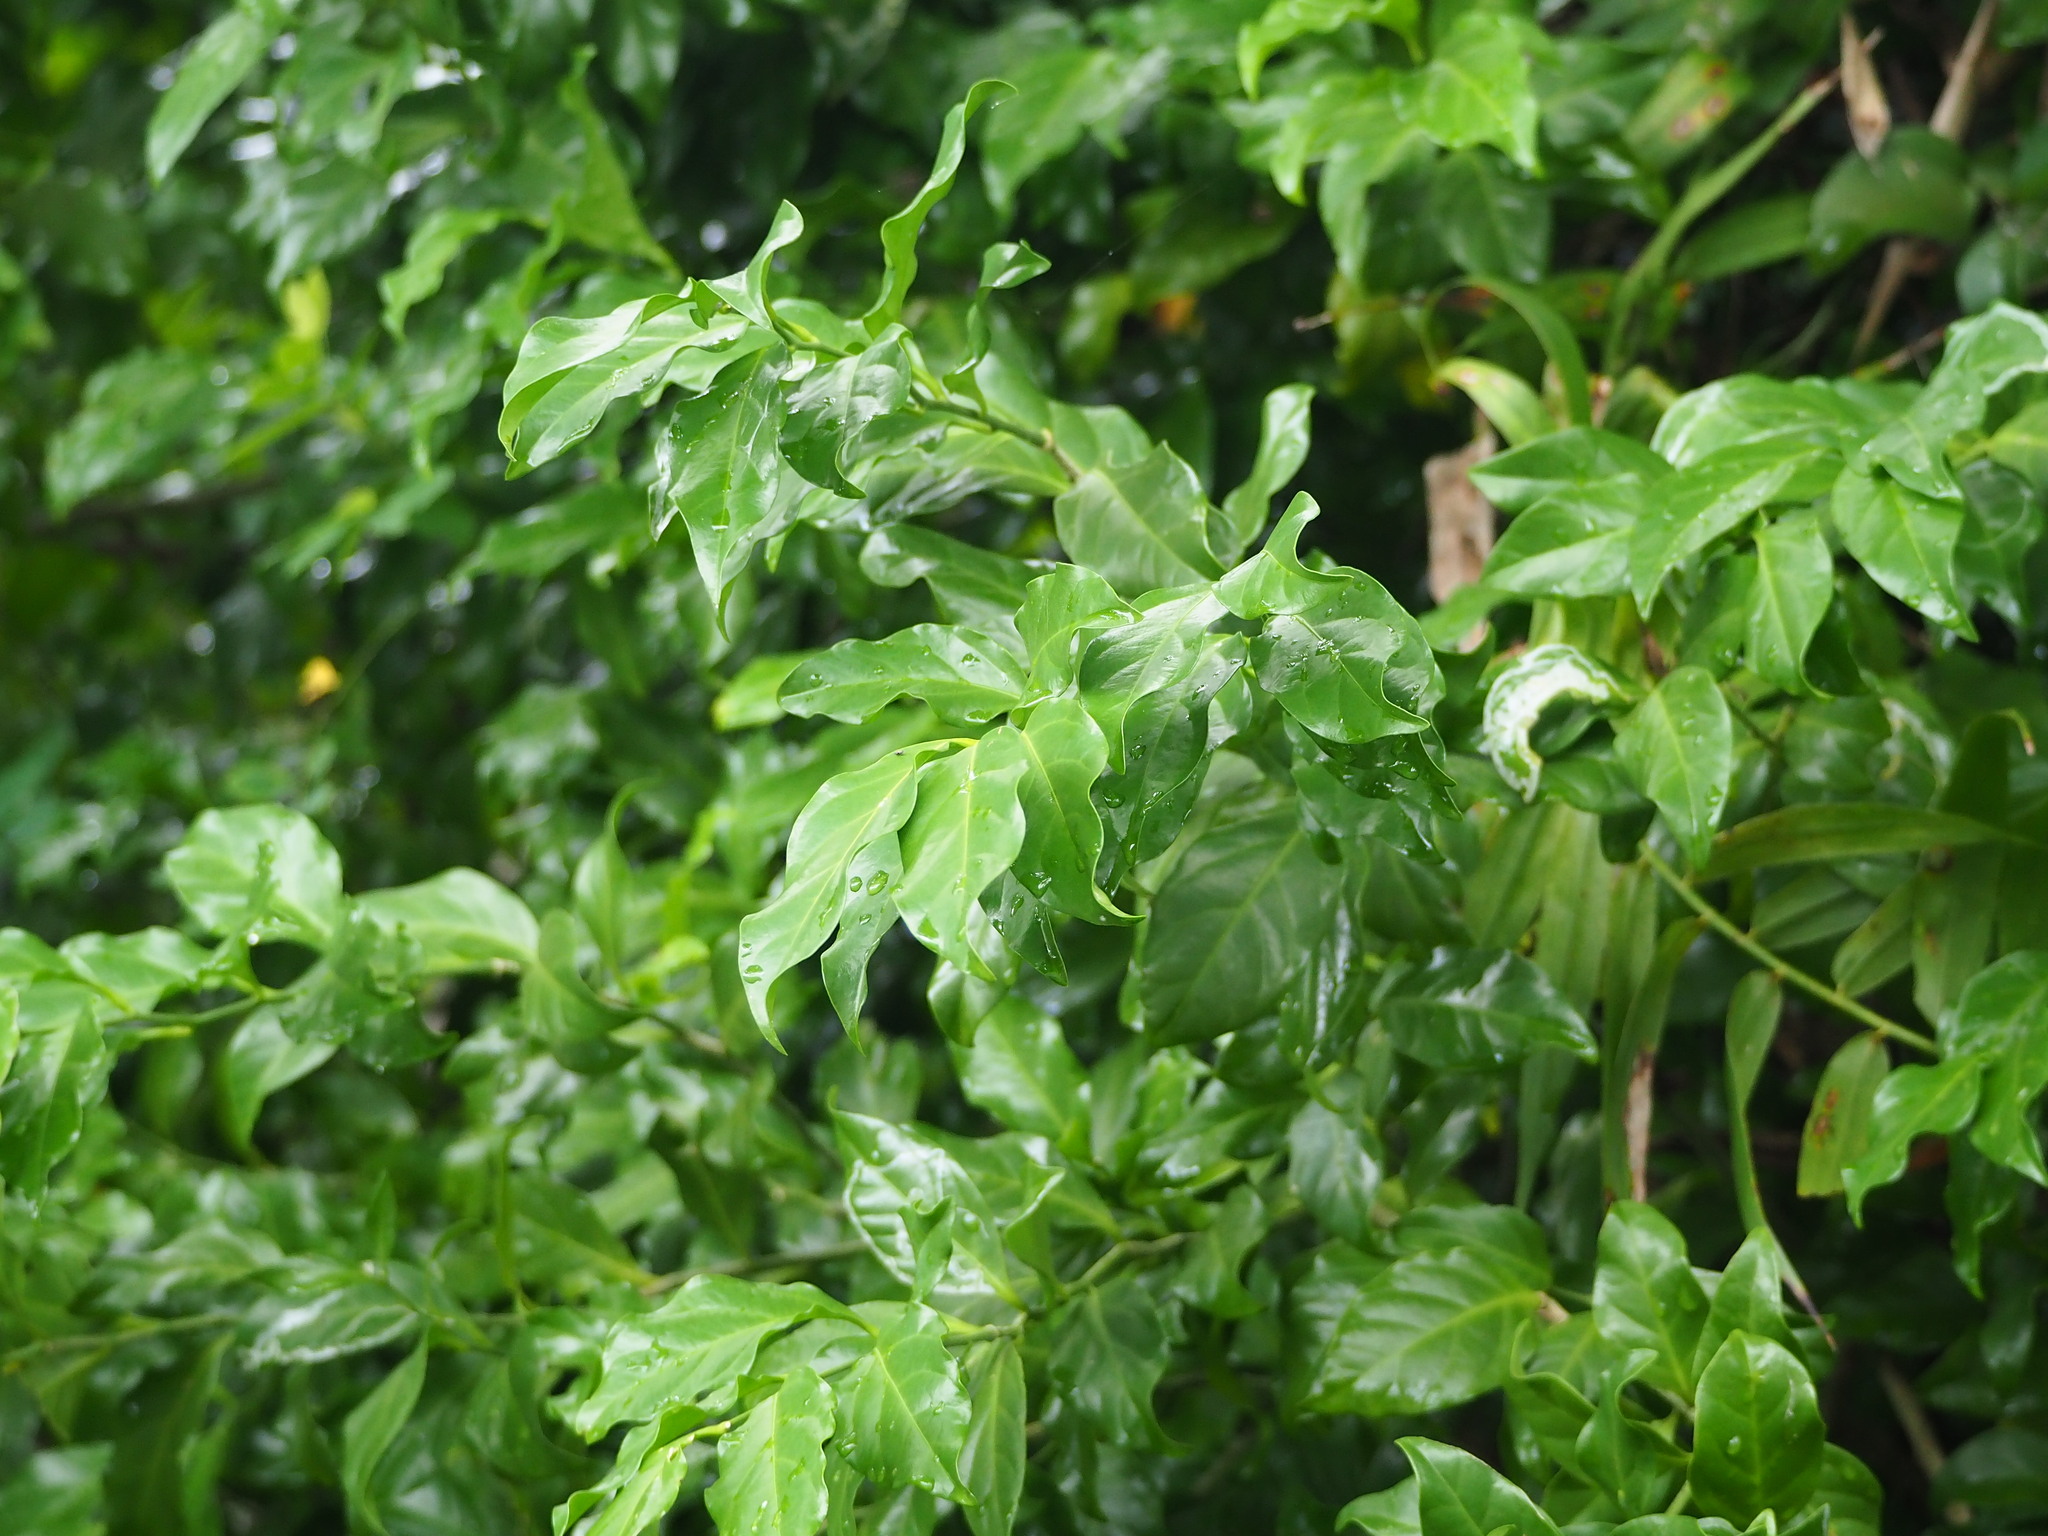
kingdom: Plantae
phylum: Tracheophyta
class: Magnoliopsida
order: Santalales
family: Opiliaceae
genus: Champereia
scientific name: Champereia manillana
